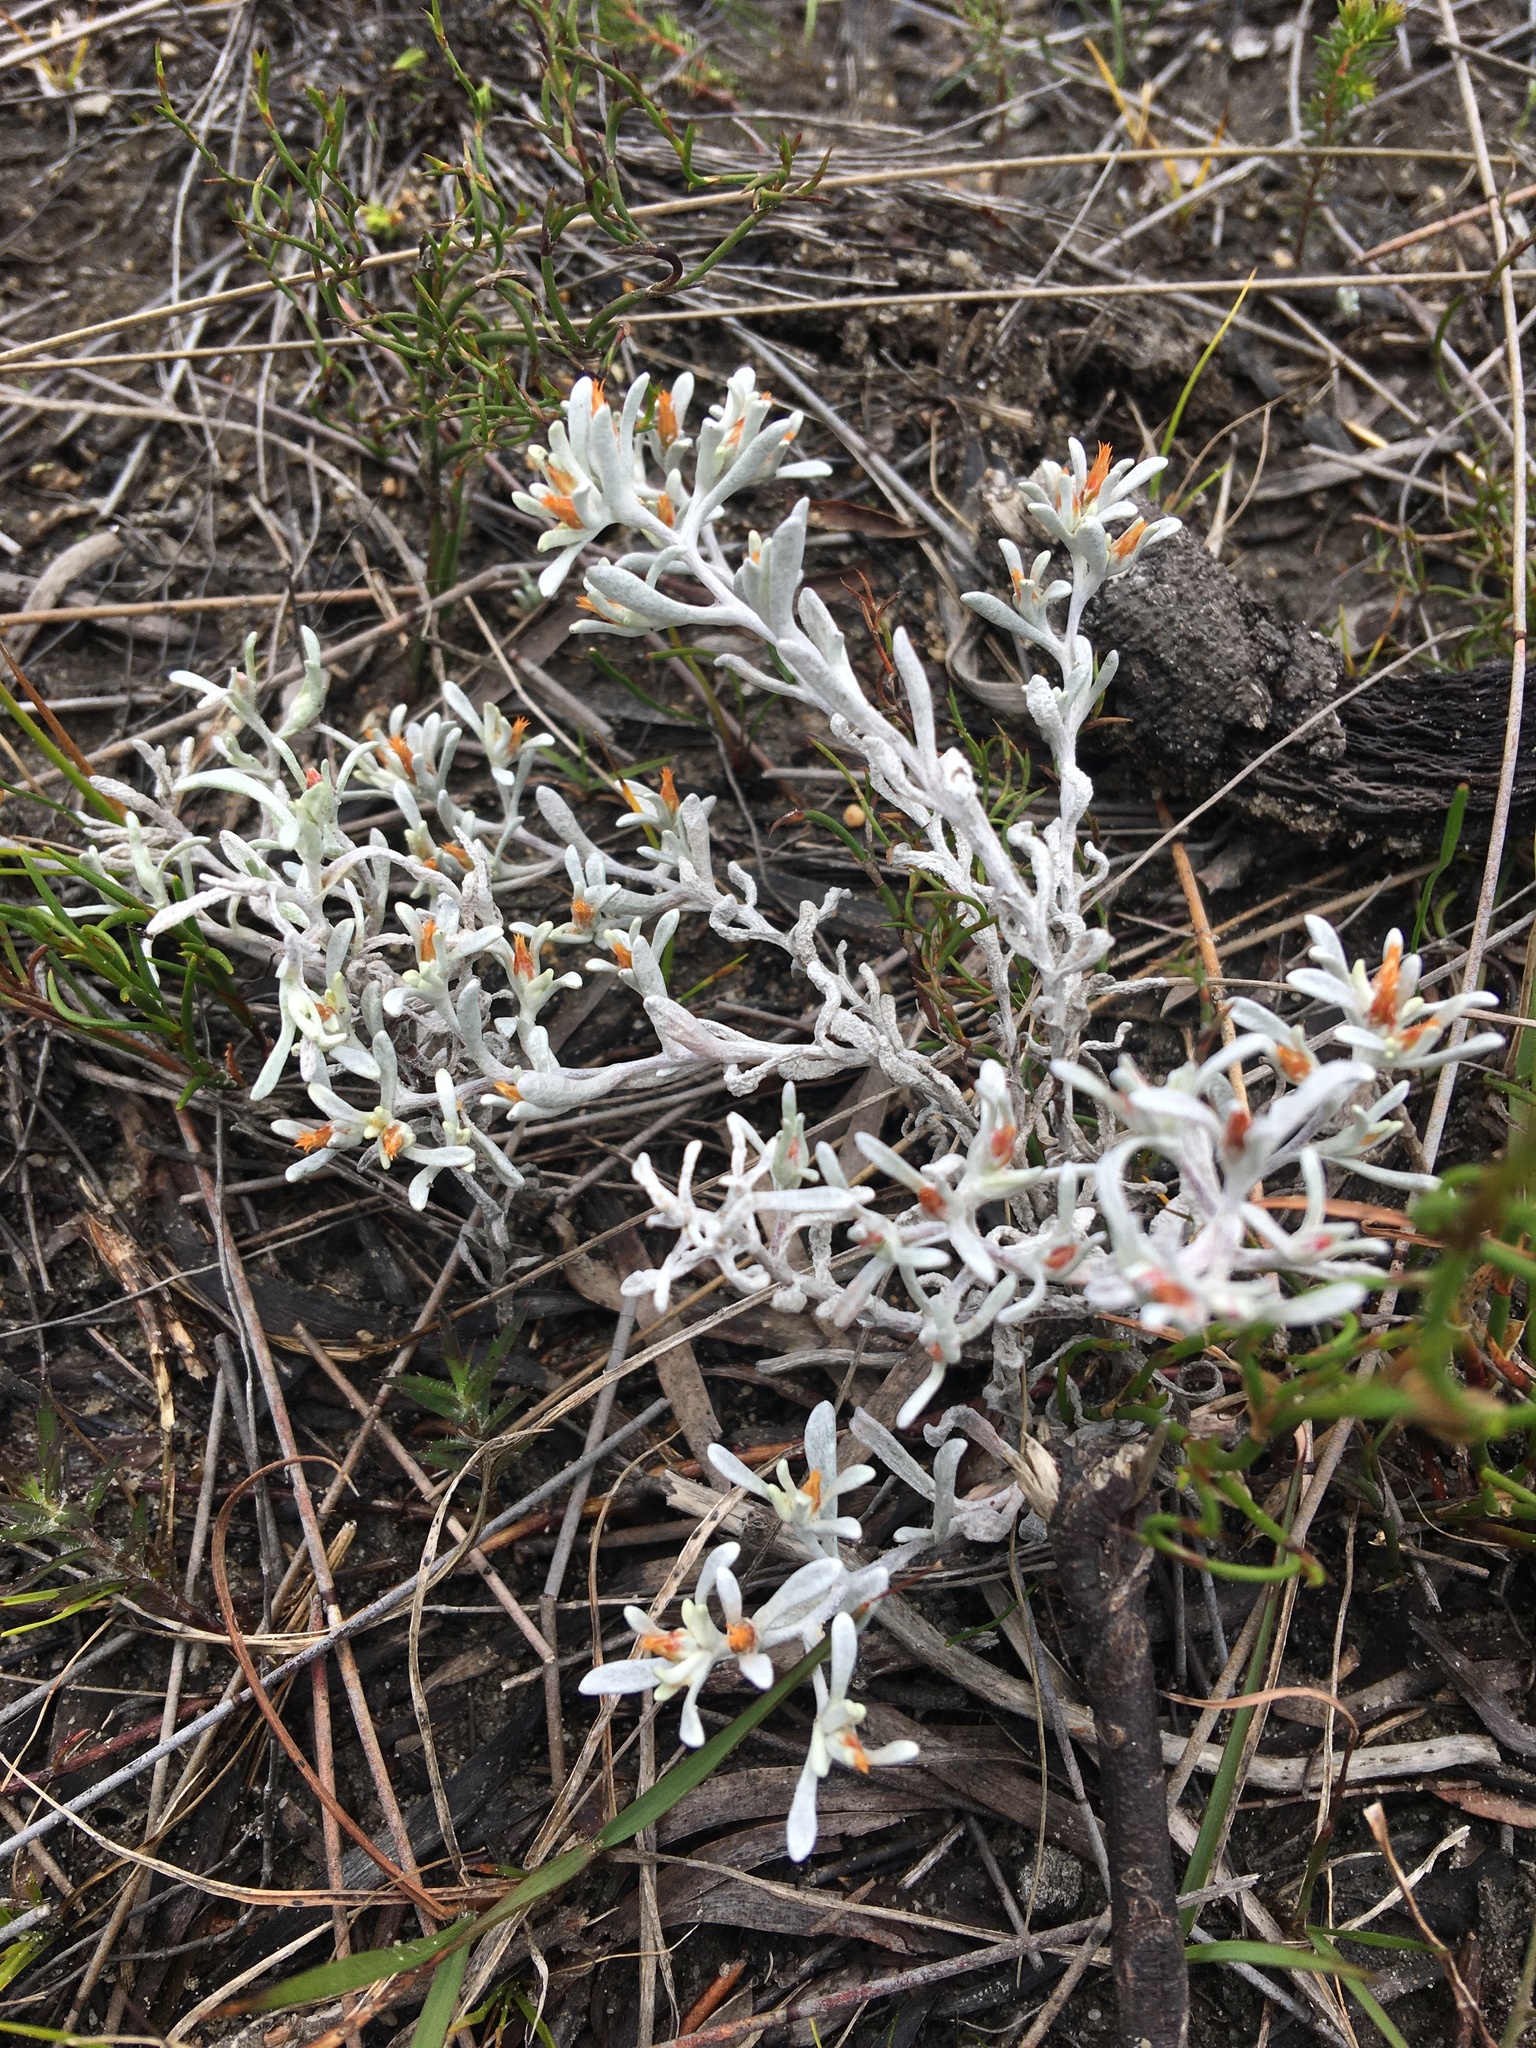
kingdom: Plantae
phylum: Tracheophyta
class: Magnoliopsida
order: Asterales
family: Asteraceae
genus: Helichrysum
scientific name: Helichrysum tinctum
